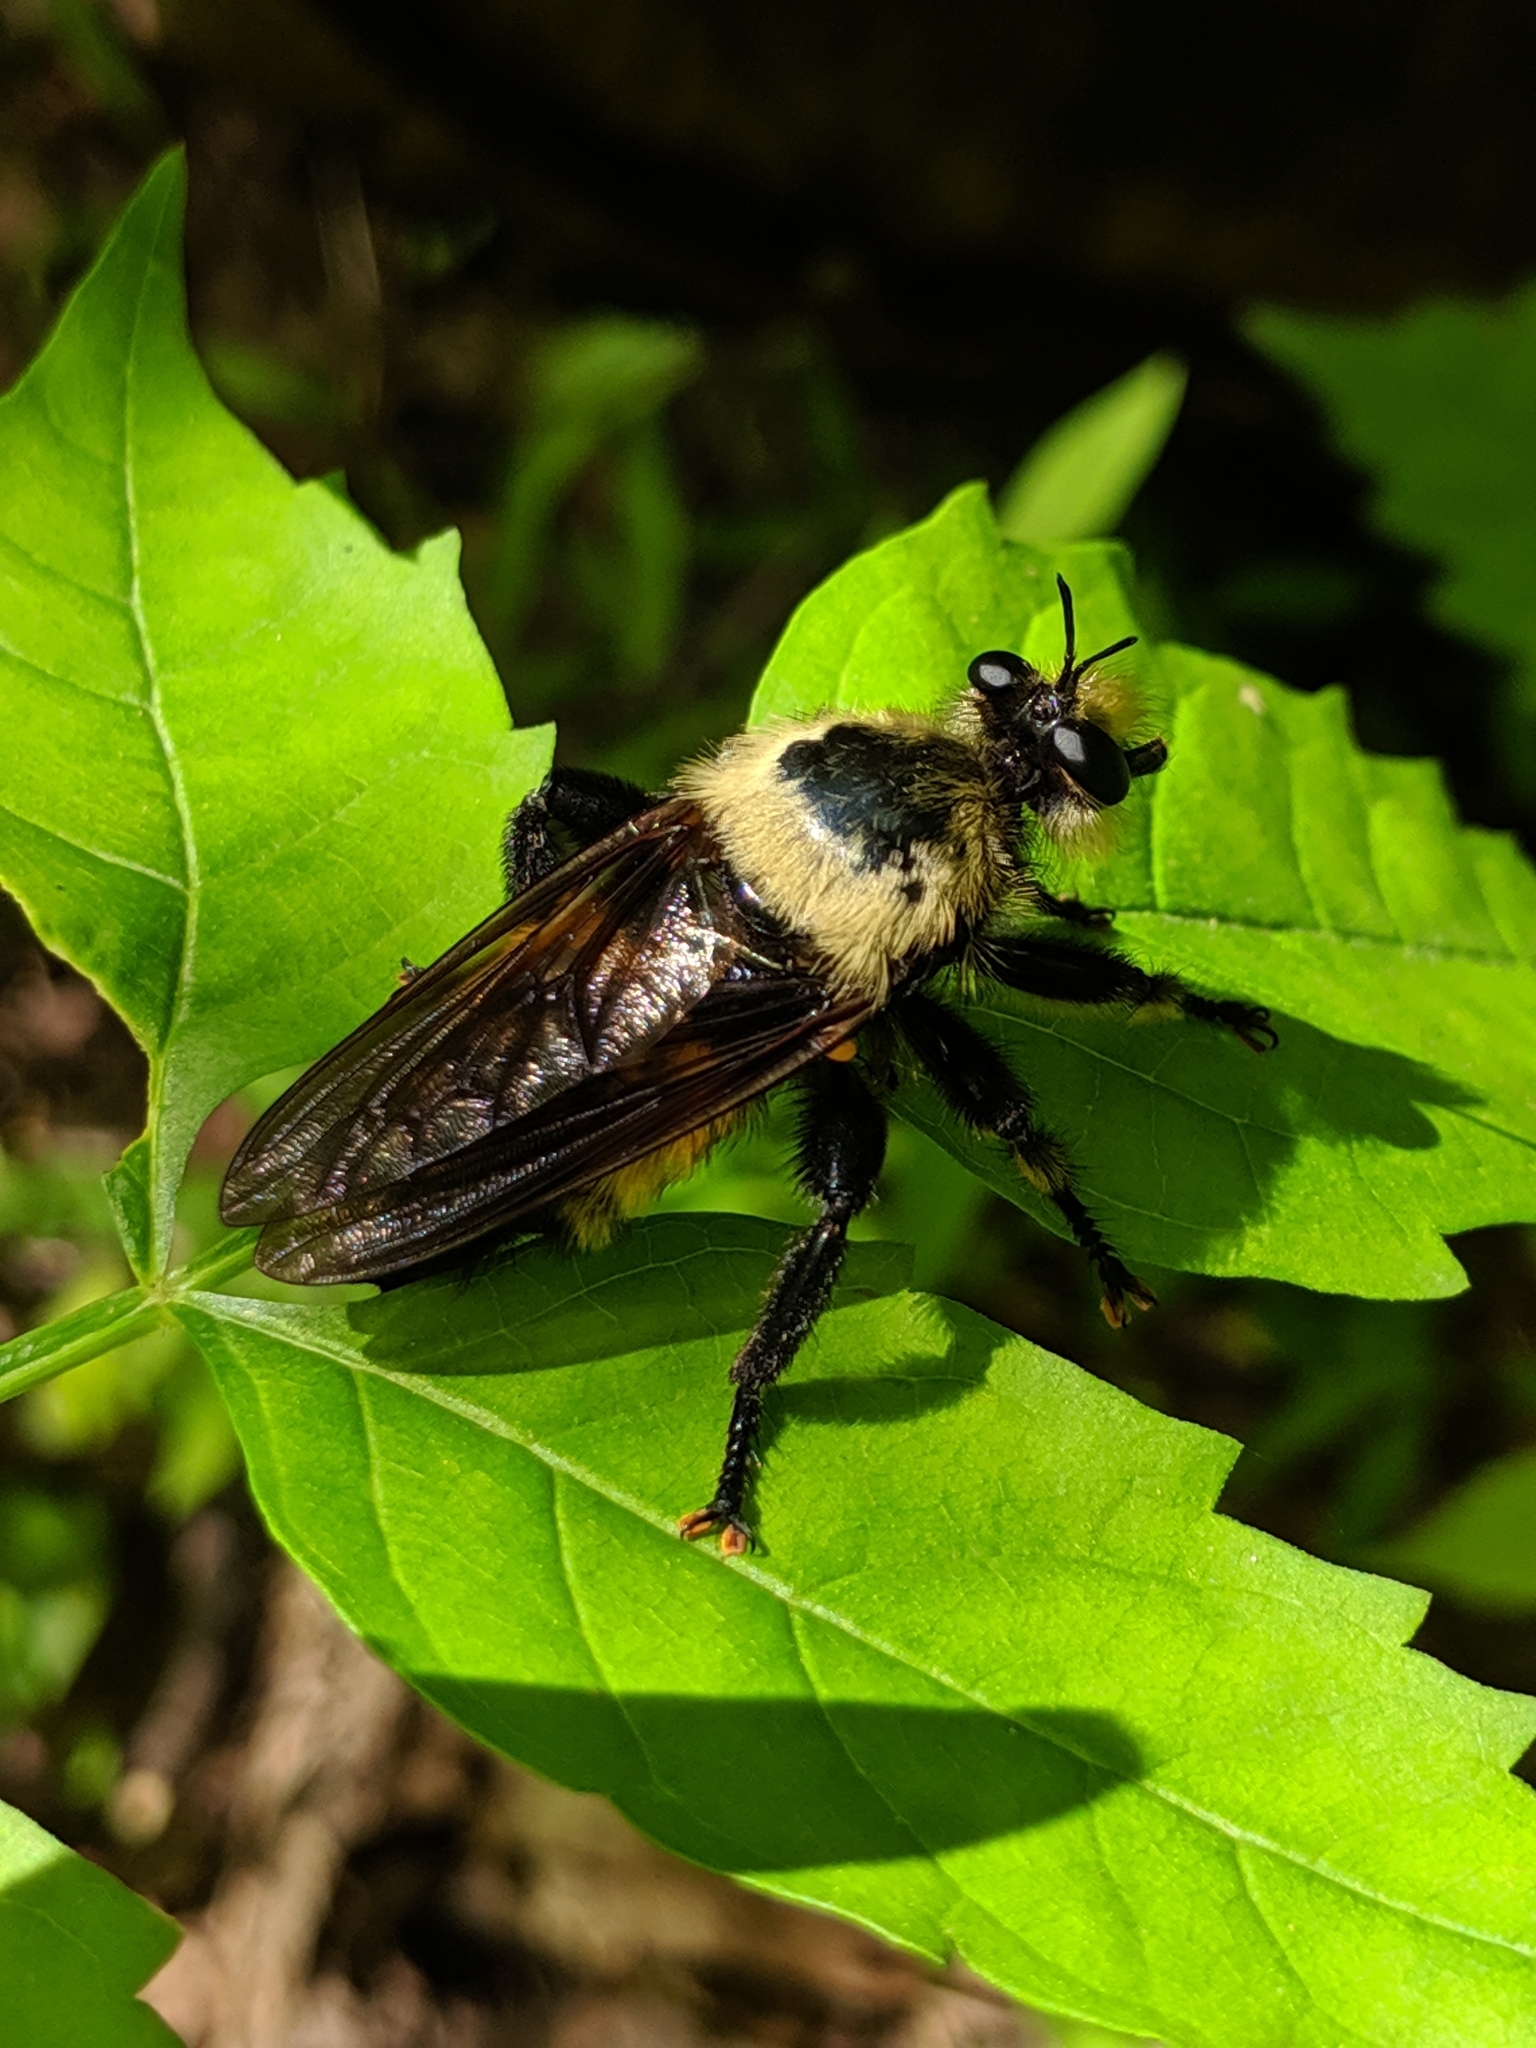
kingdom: Animalia
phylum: Arthropoda
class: Insecta
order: Diptera
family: Asilidae
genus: Laphria
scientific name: Laphria grossa
